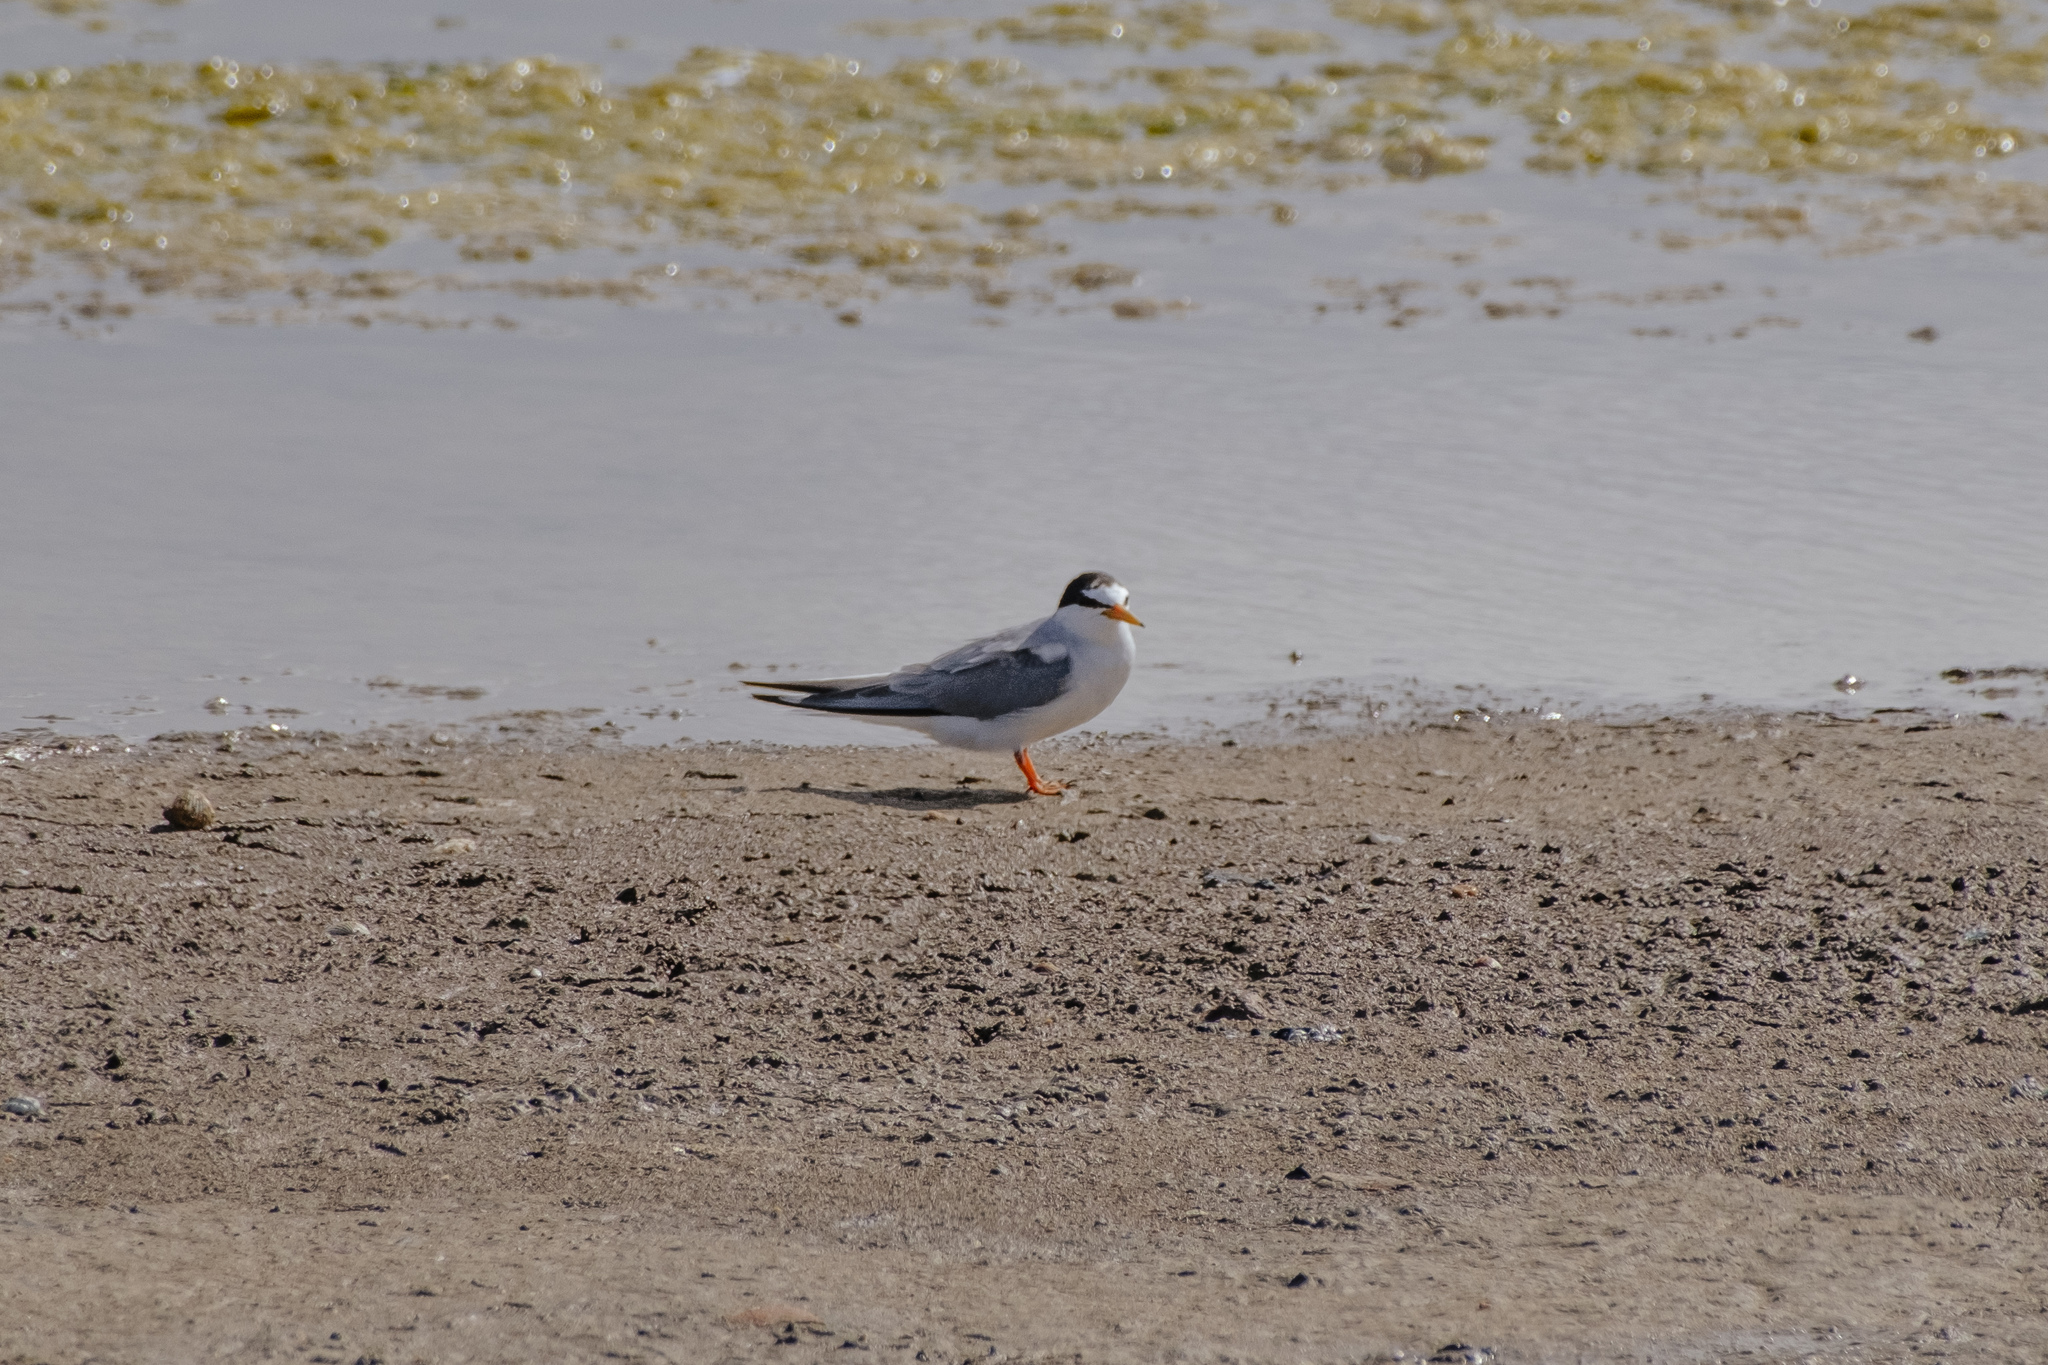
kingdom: Animalia
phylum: Chordata
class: Aves
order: Charadriiformes
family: Laridae
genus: Sternula
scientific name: Sternula albifrons
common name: Little tern
